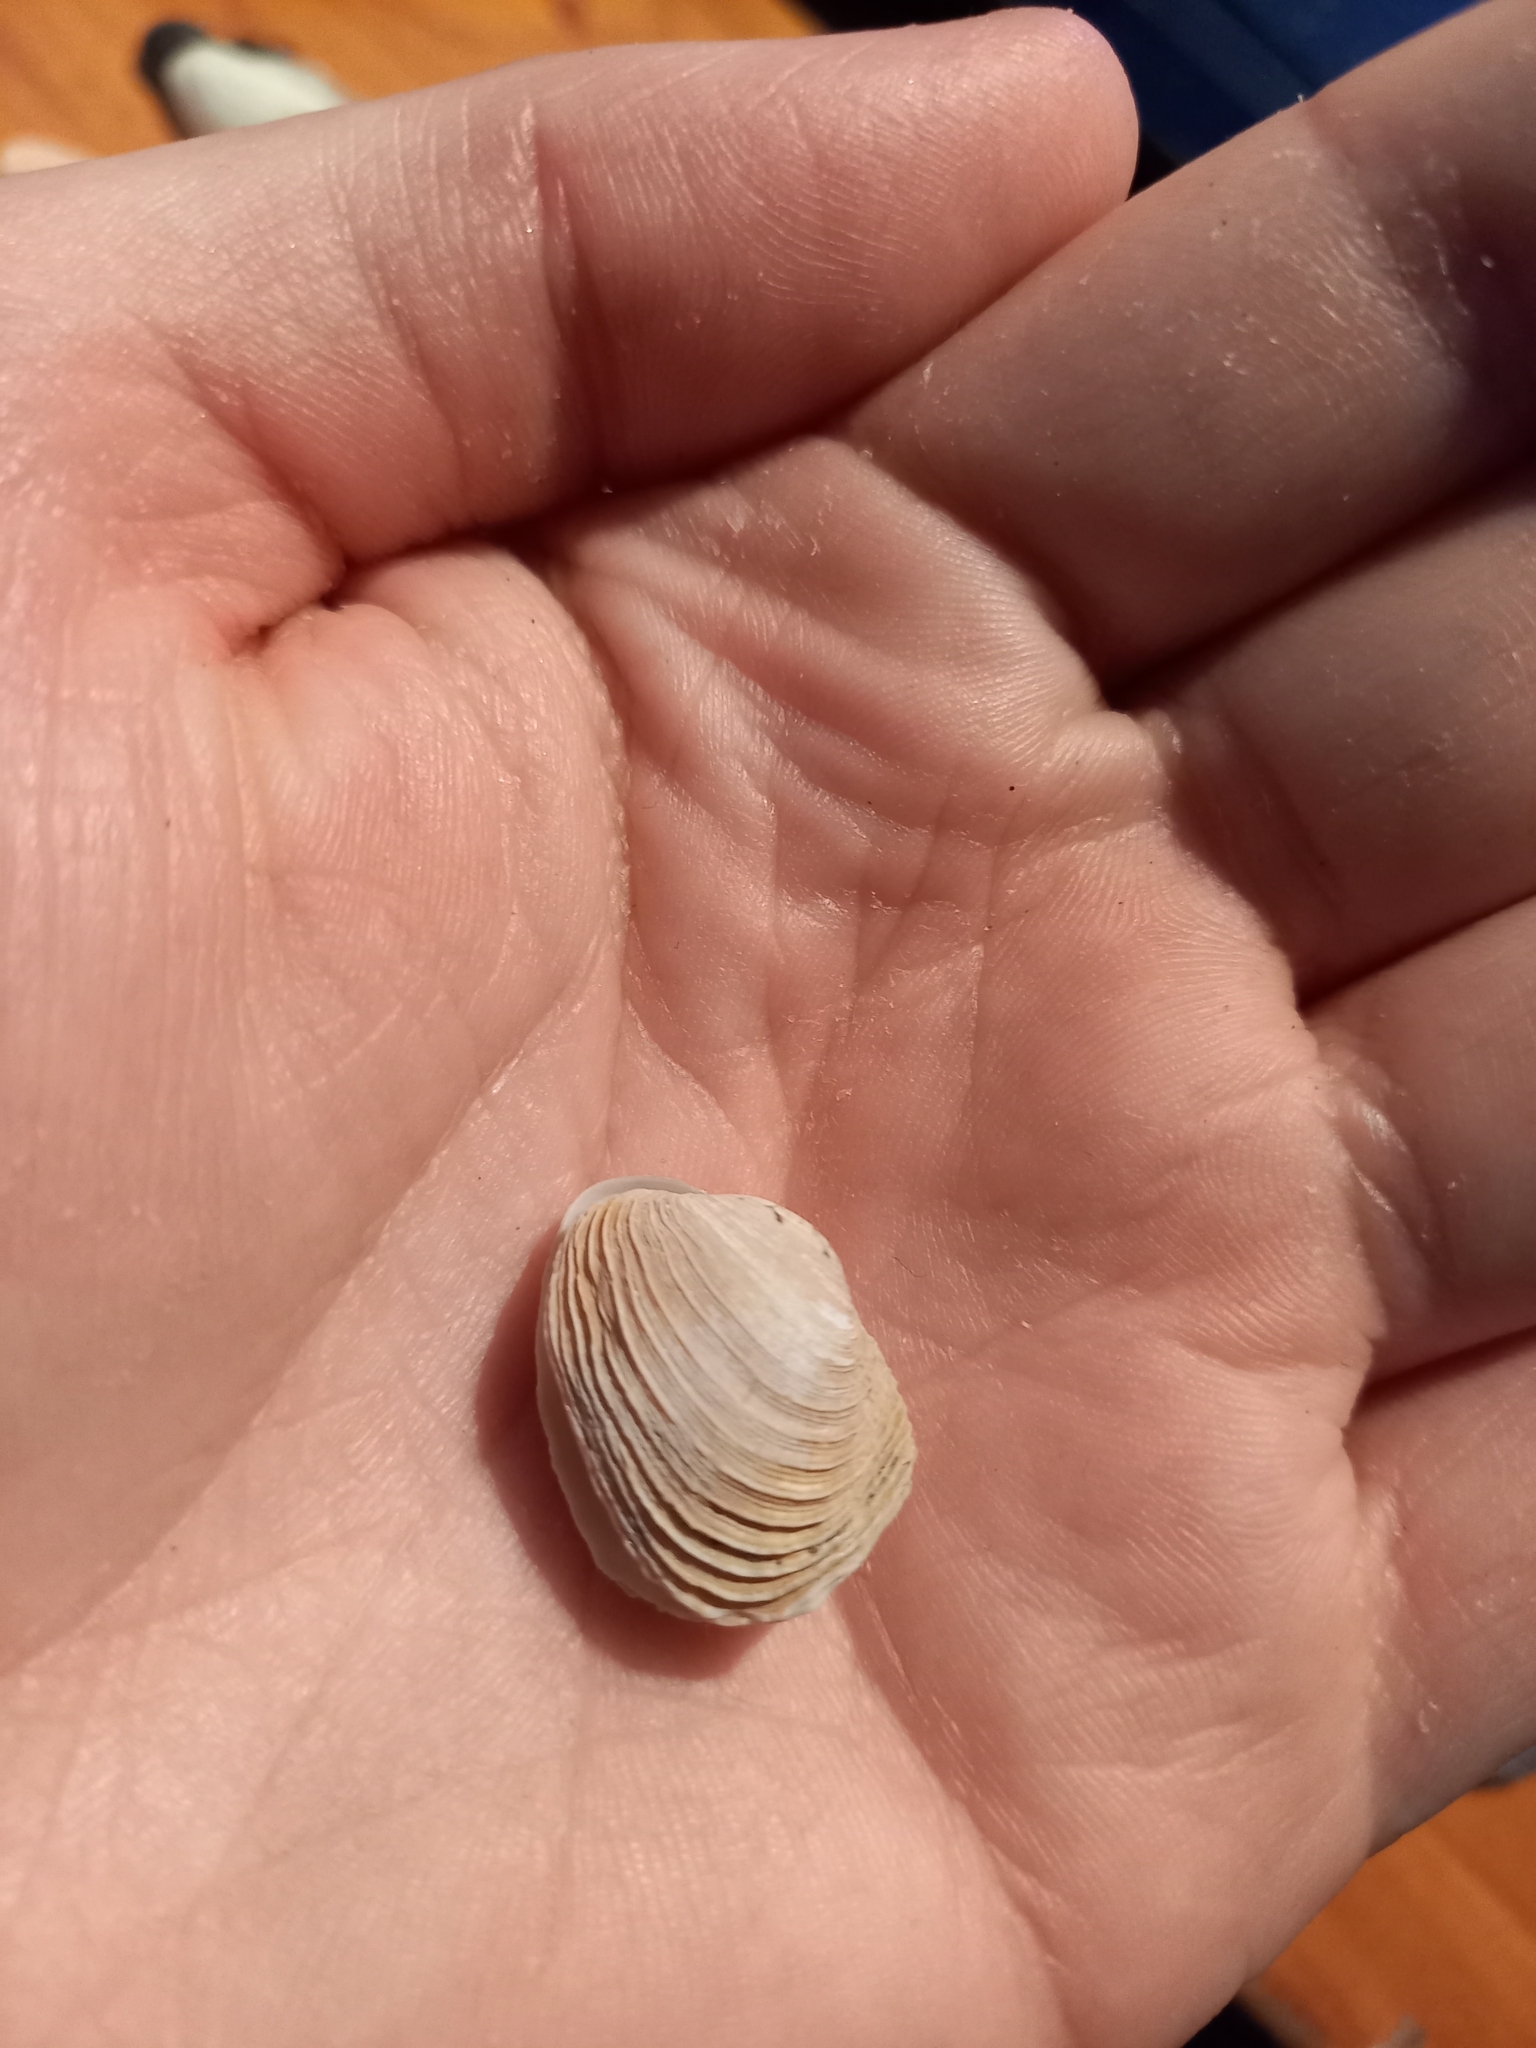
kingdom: Animalia
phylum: Mollusca
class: Bivalvia
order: Venerida
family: Veneridae
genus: Irus
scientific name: Irus reflexus
